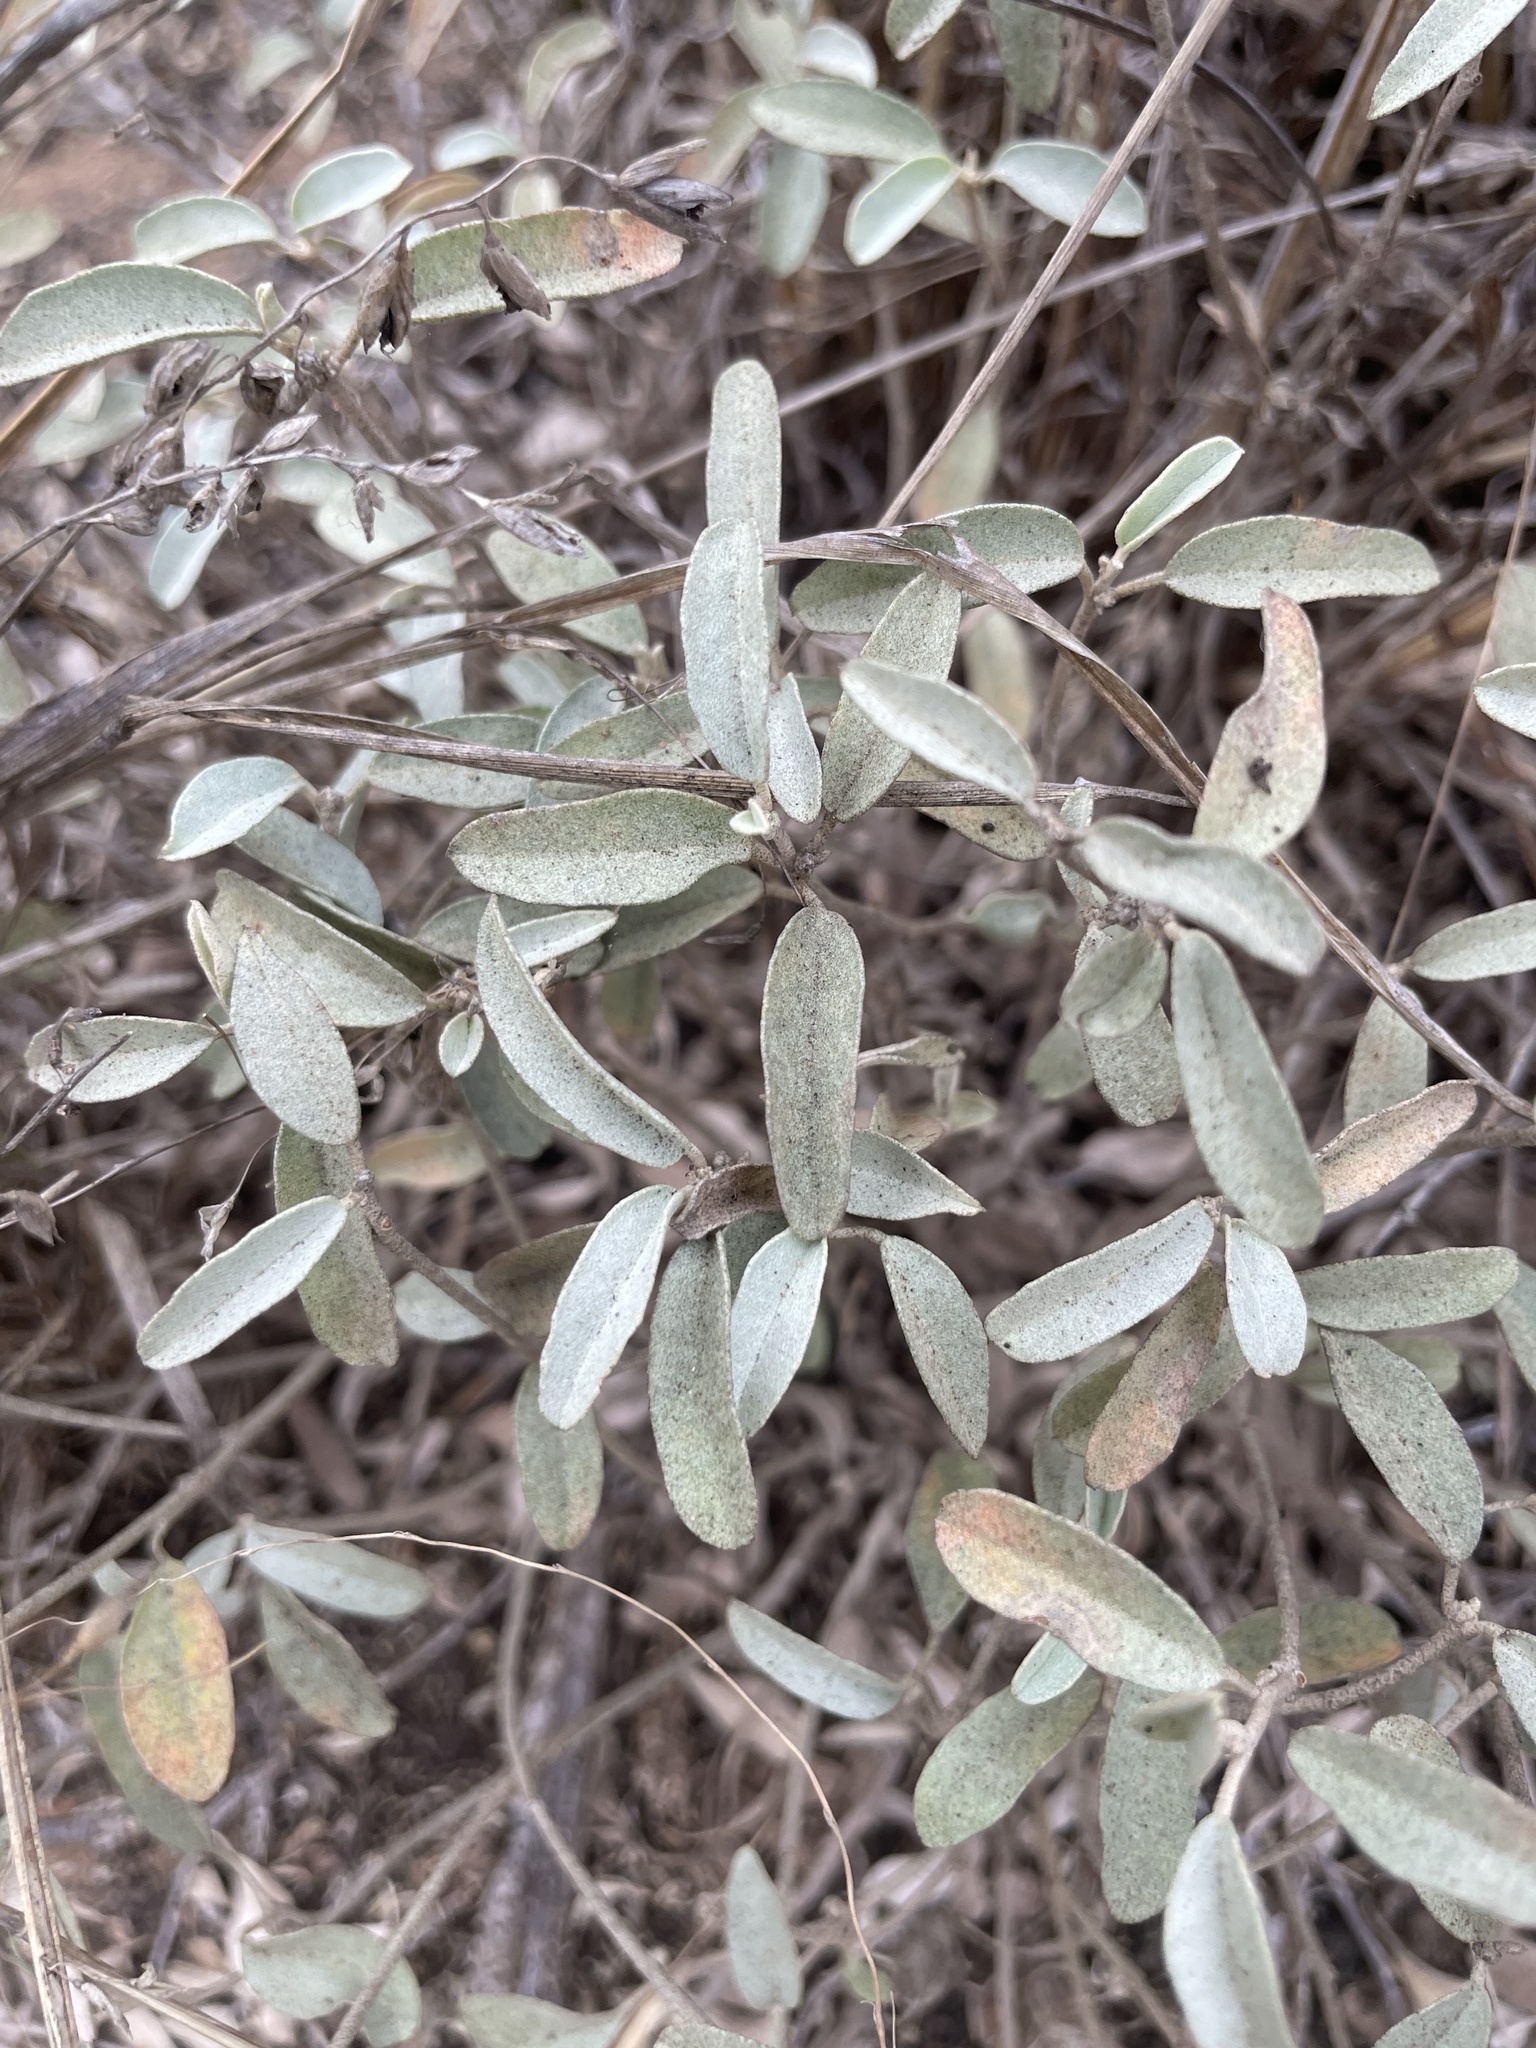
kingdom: Plantae
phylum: Tracheophyta
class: Magnoliopsida
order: Malpighiales
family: Euphorbiaceae
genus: Croton
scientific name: Croton californicus
